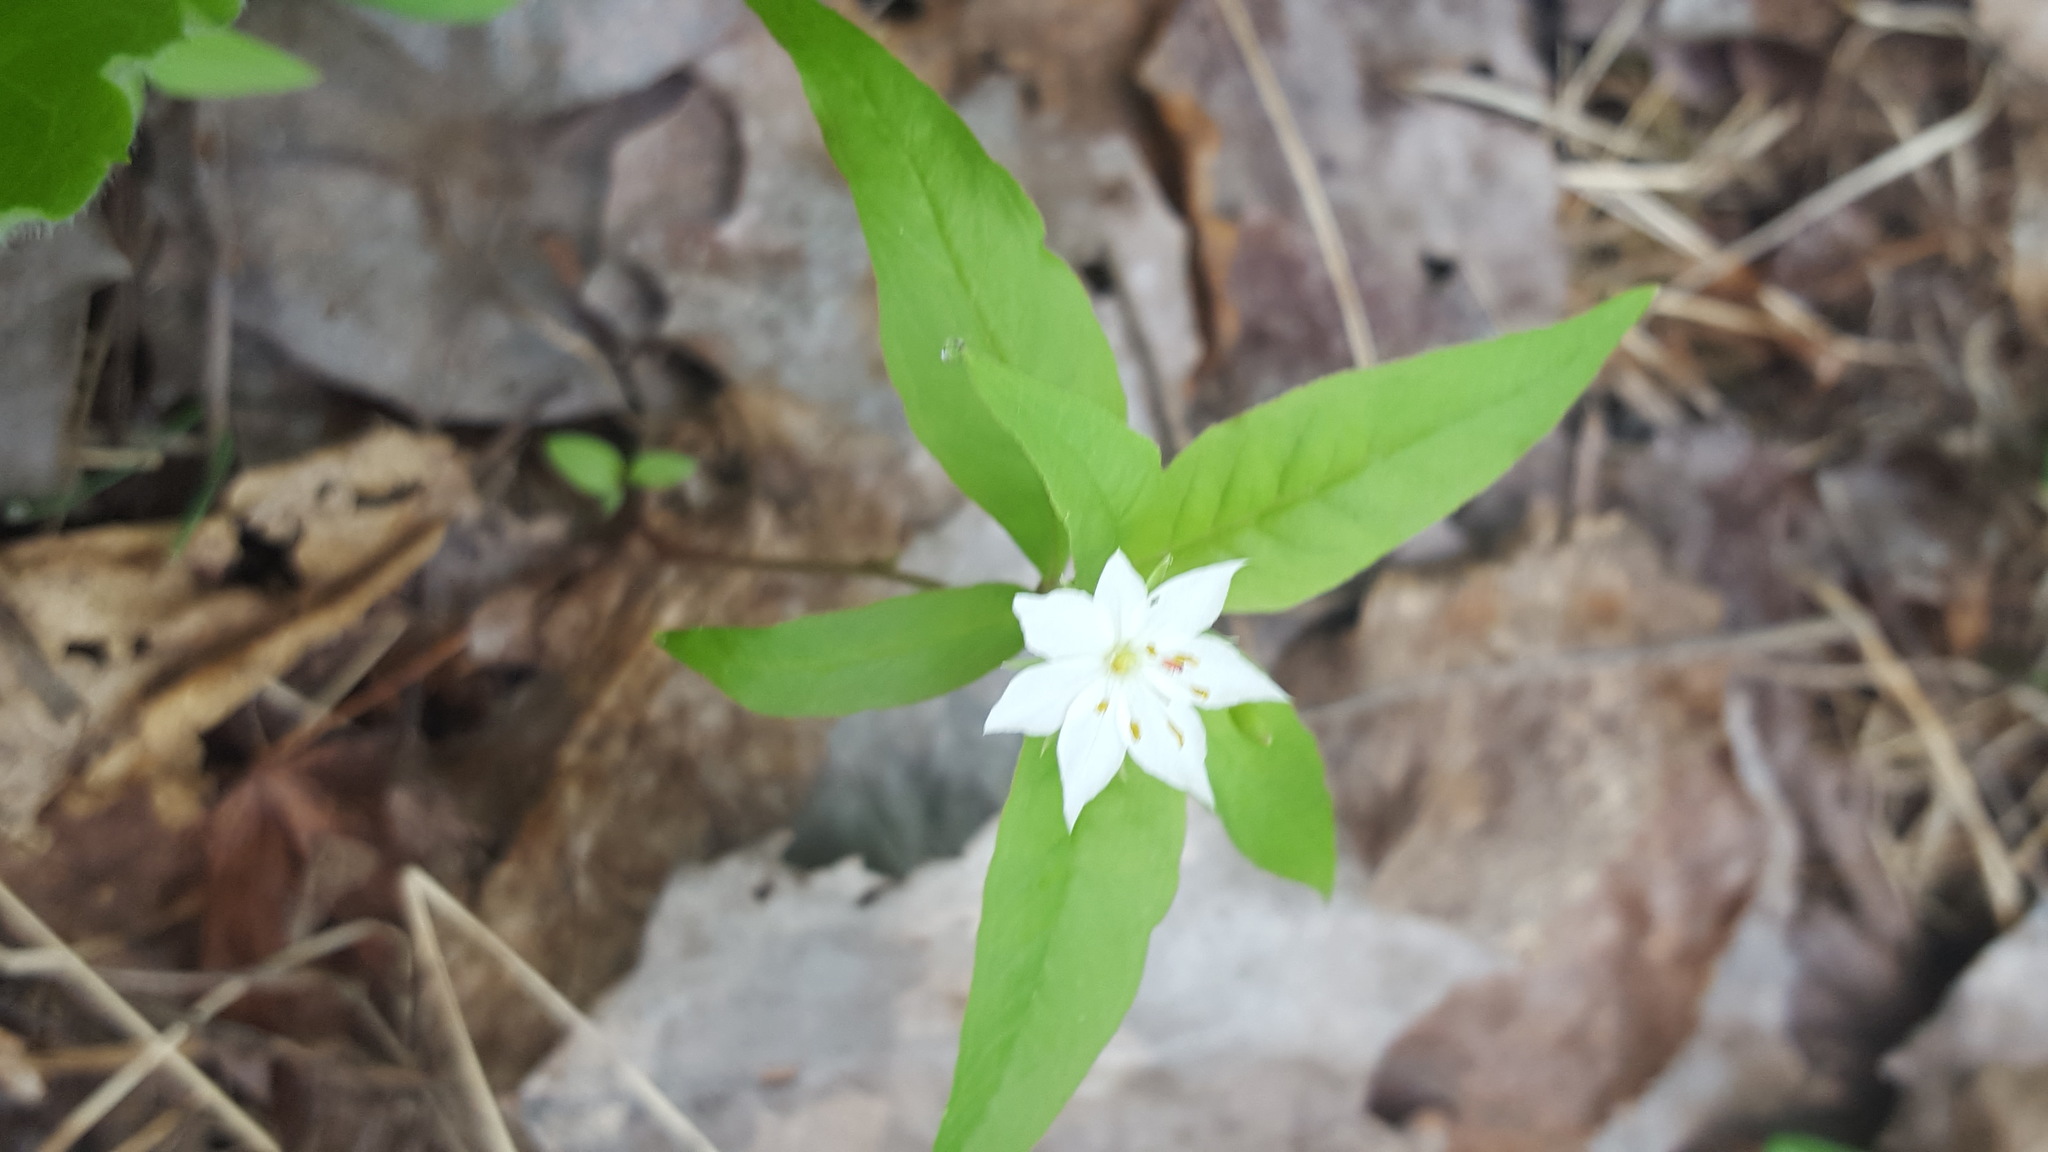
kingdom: Plantae
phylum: Tracheophyta
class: Magnoliopsida
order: Ericales
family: Primulaceae
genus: Lysimachia
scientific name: Lysimachia borealis
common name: American starflower
